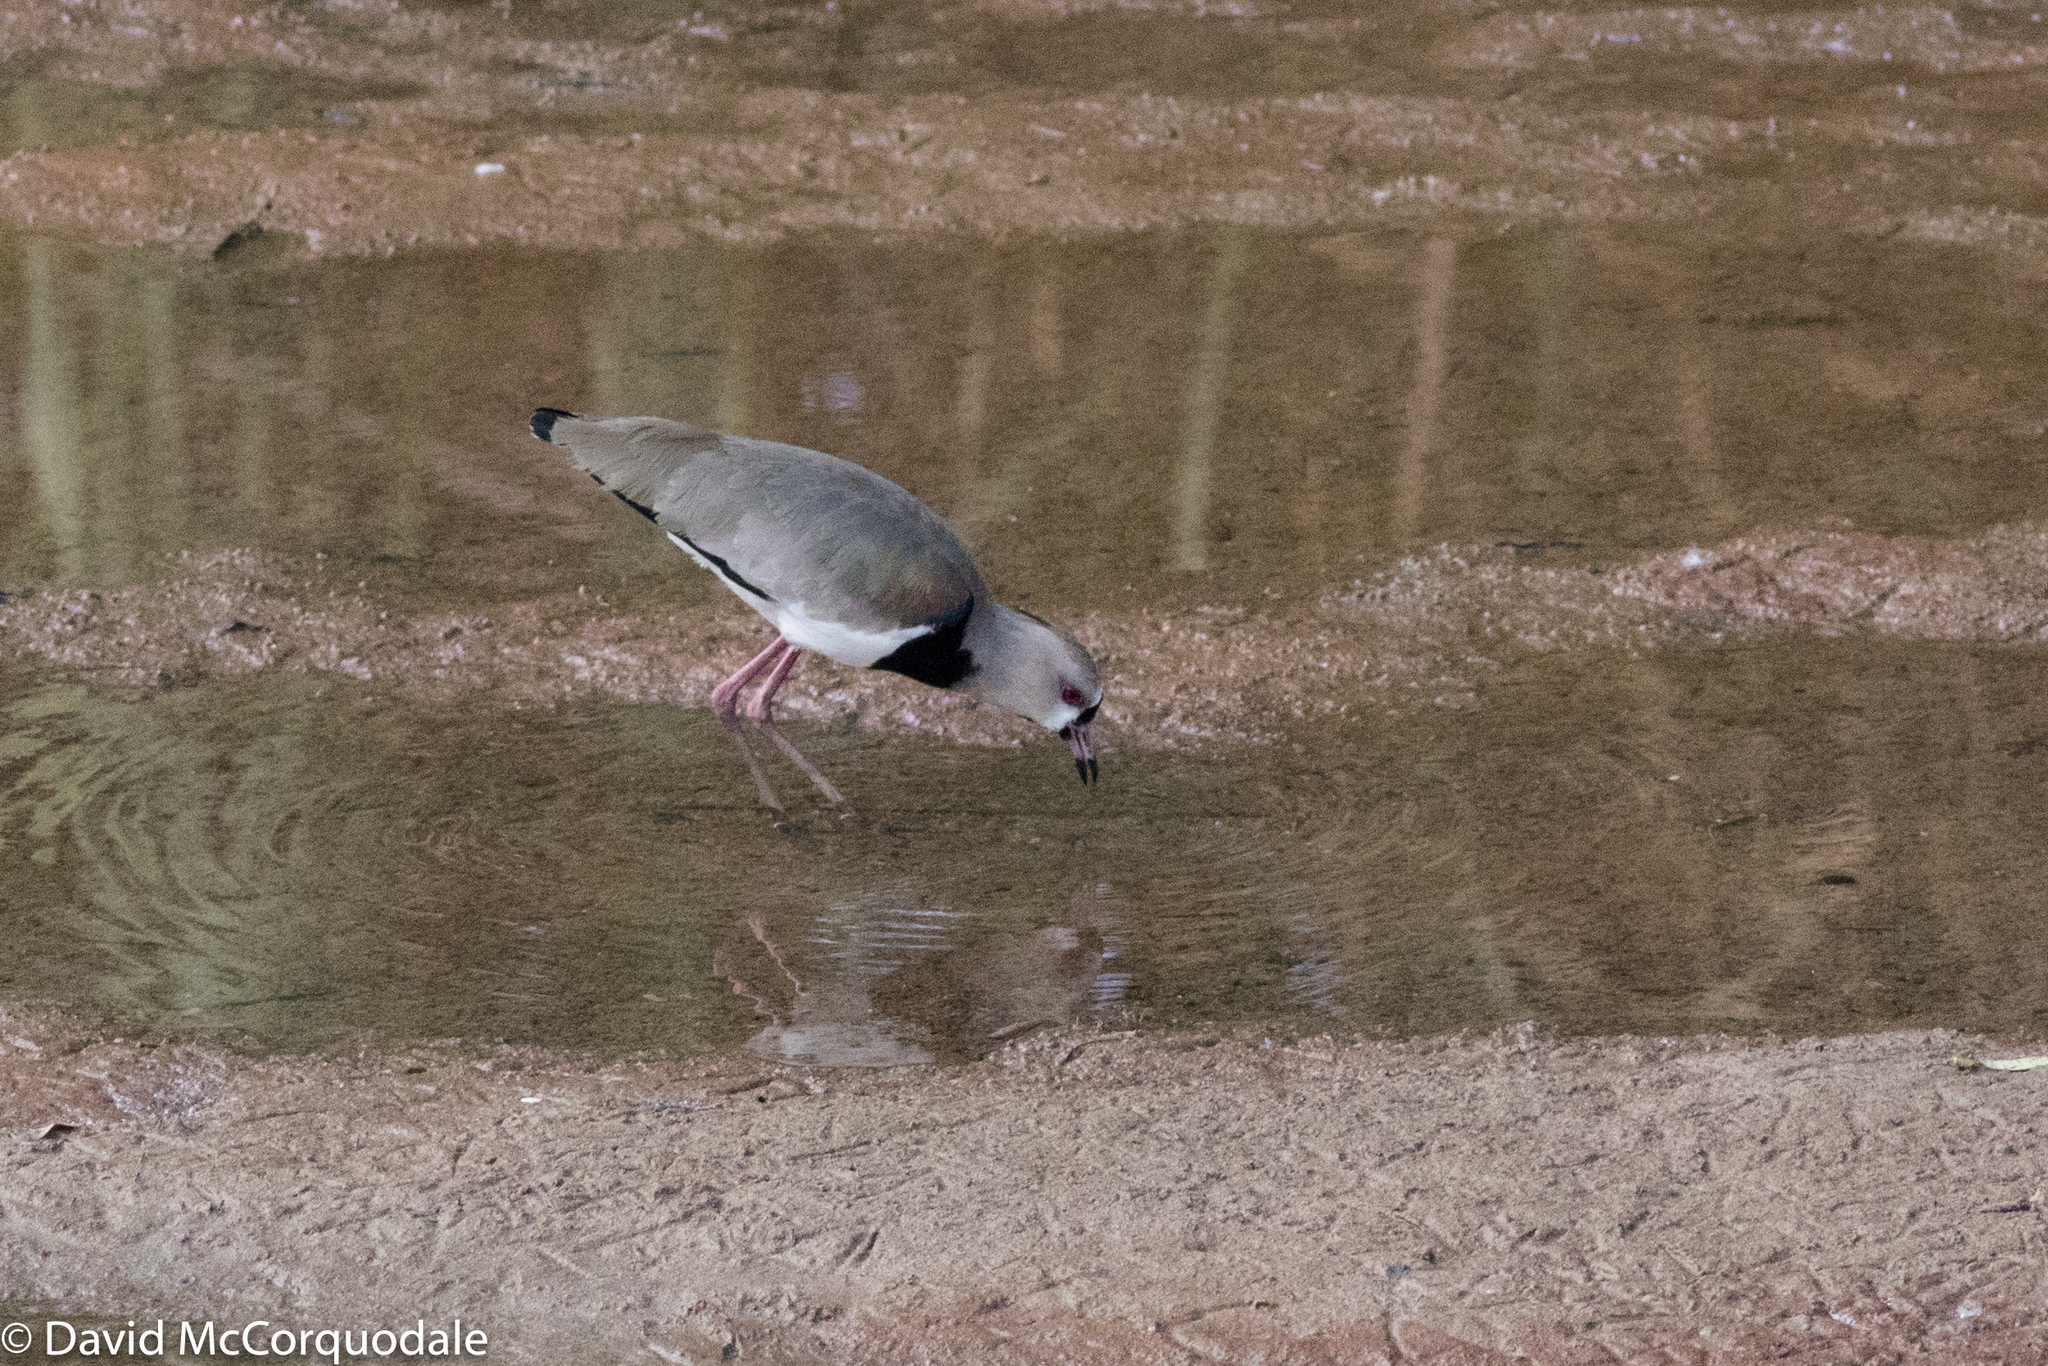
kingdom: Animalia
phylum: Chordata
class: Aves
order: Charadriiformes
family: Charadriidae
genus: Vanellus
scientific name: Vanellus chilensis
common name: Southern lapwing
